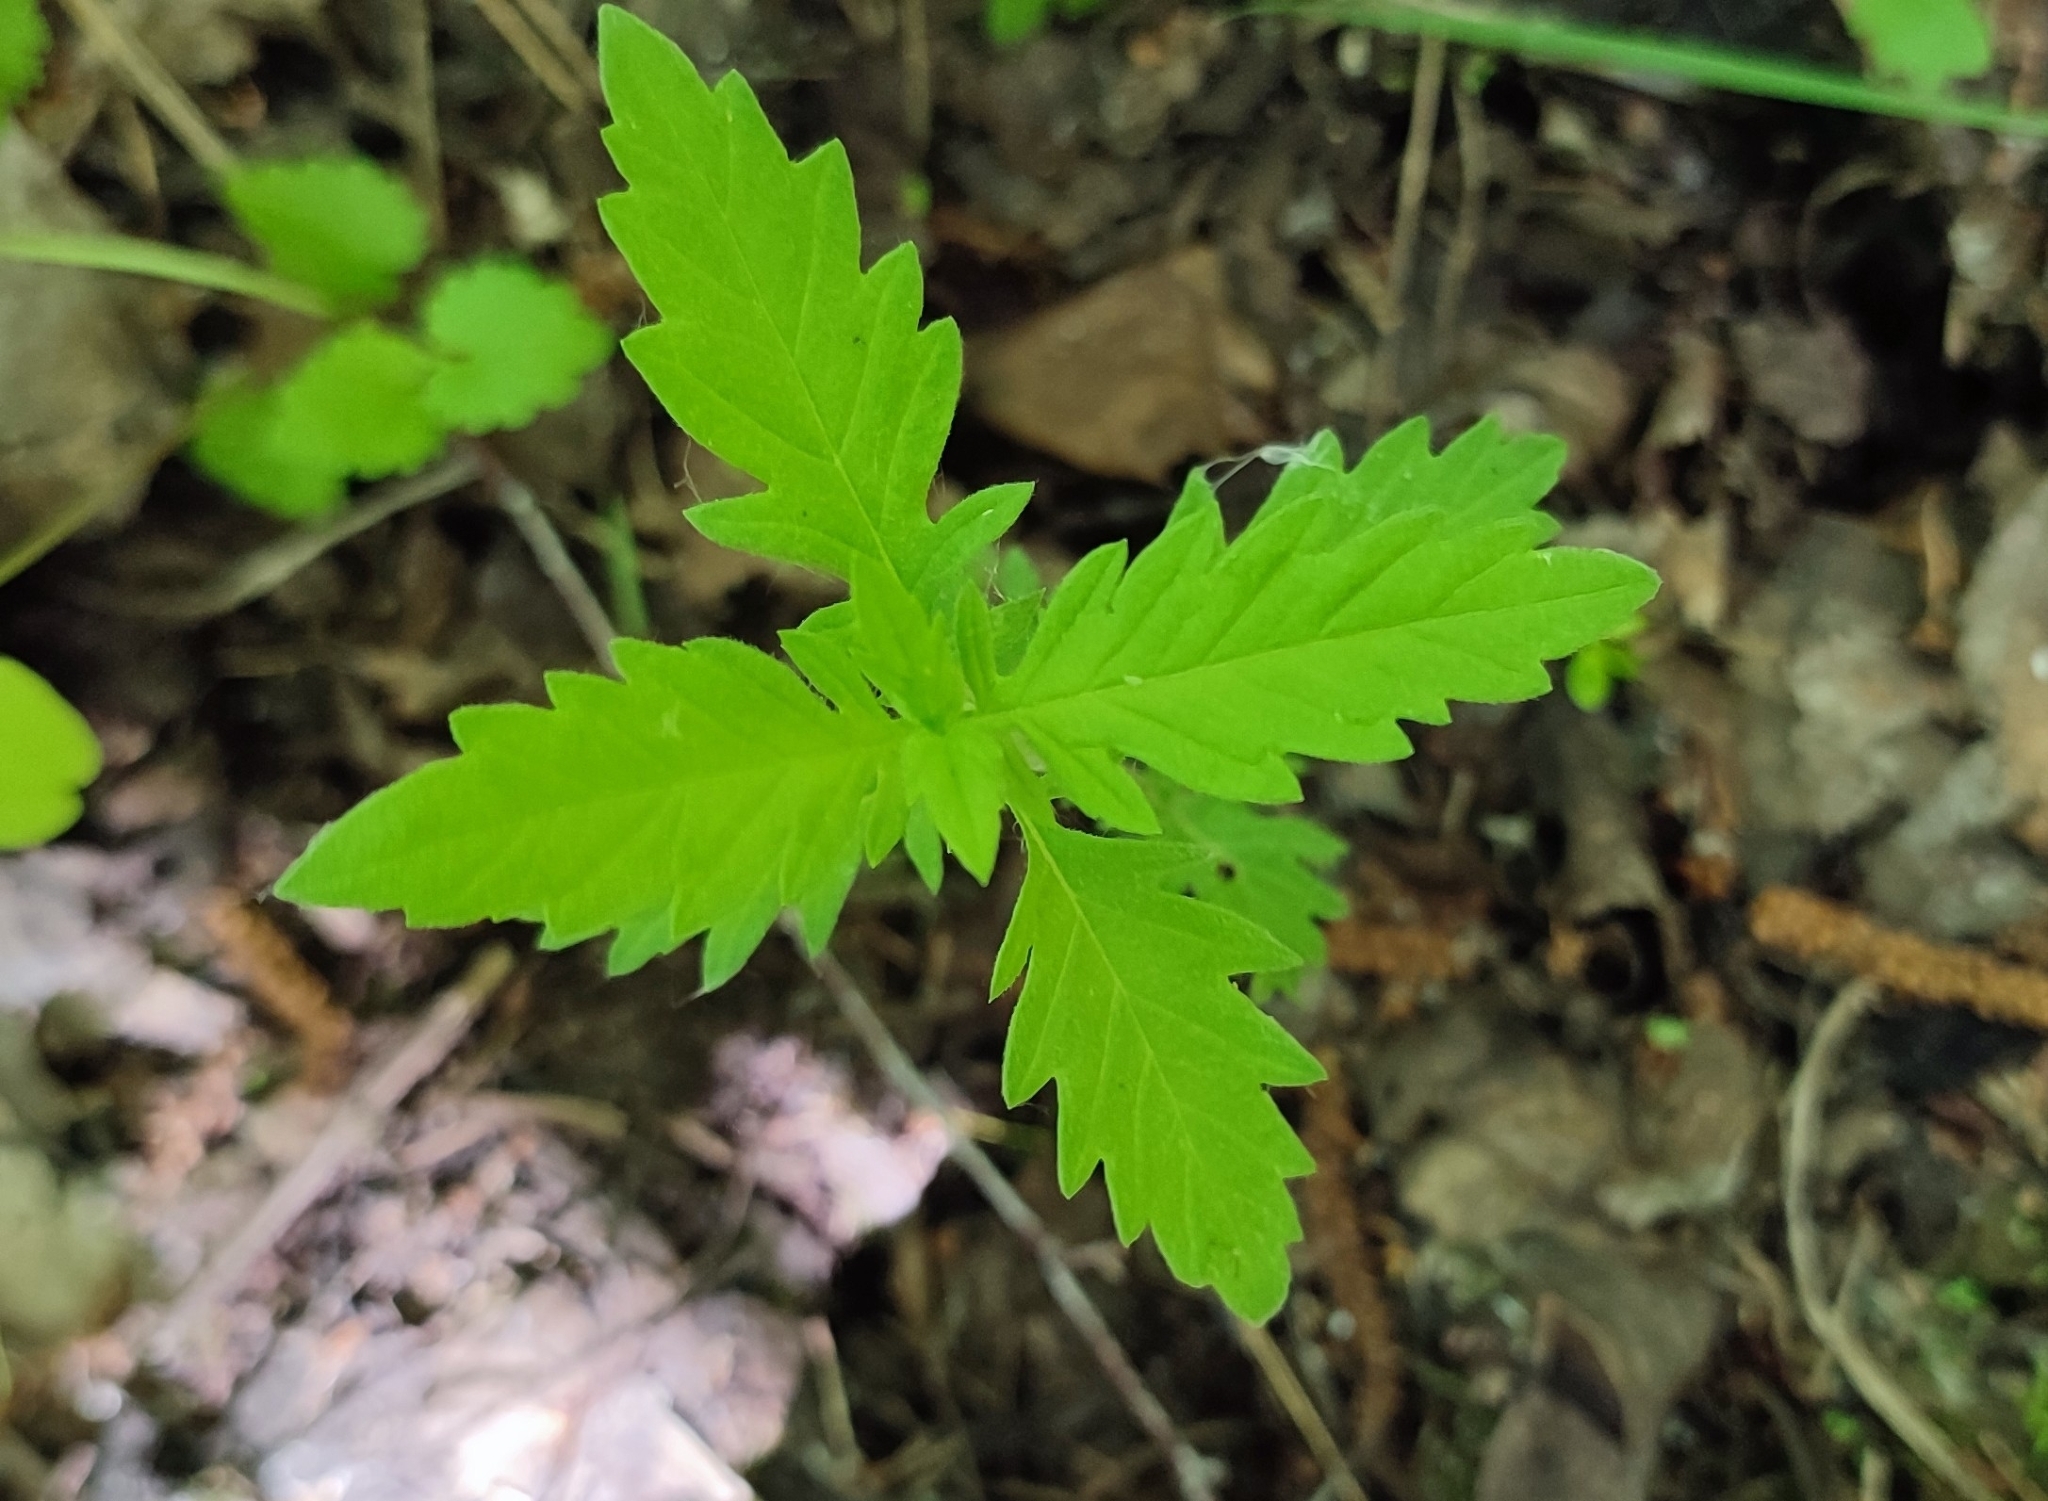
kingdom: Plantae
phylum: Tracheophyta
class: Magnoliopsida
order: Lamiales
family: Lamiaceae
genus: Lycopus
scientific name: Lycopus europaeus
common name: European bugleweed
